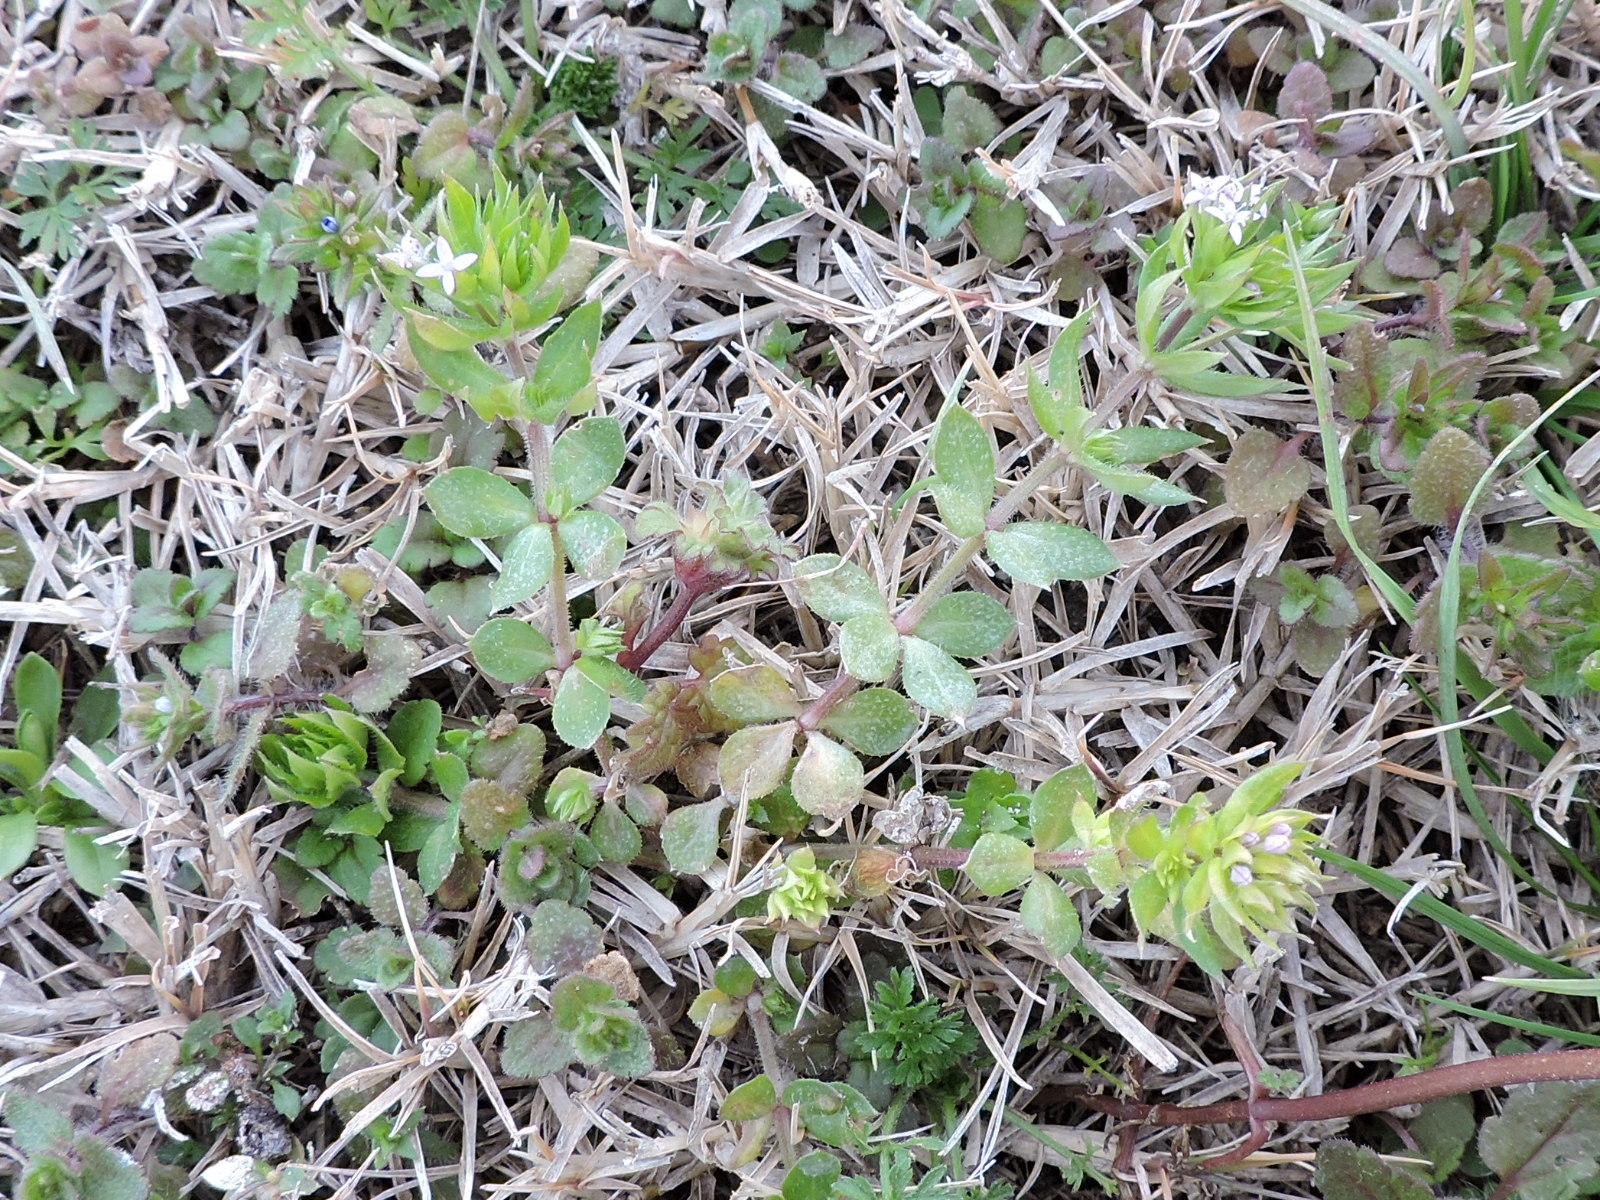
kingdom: Plantae
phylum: Tracheophyta
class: Magnoliopsida
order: Gentianales
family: Rubiaceae
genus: Sherardia
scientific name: Sherardia arvensis
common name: Field madder
